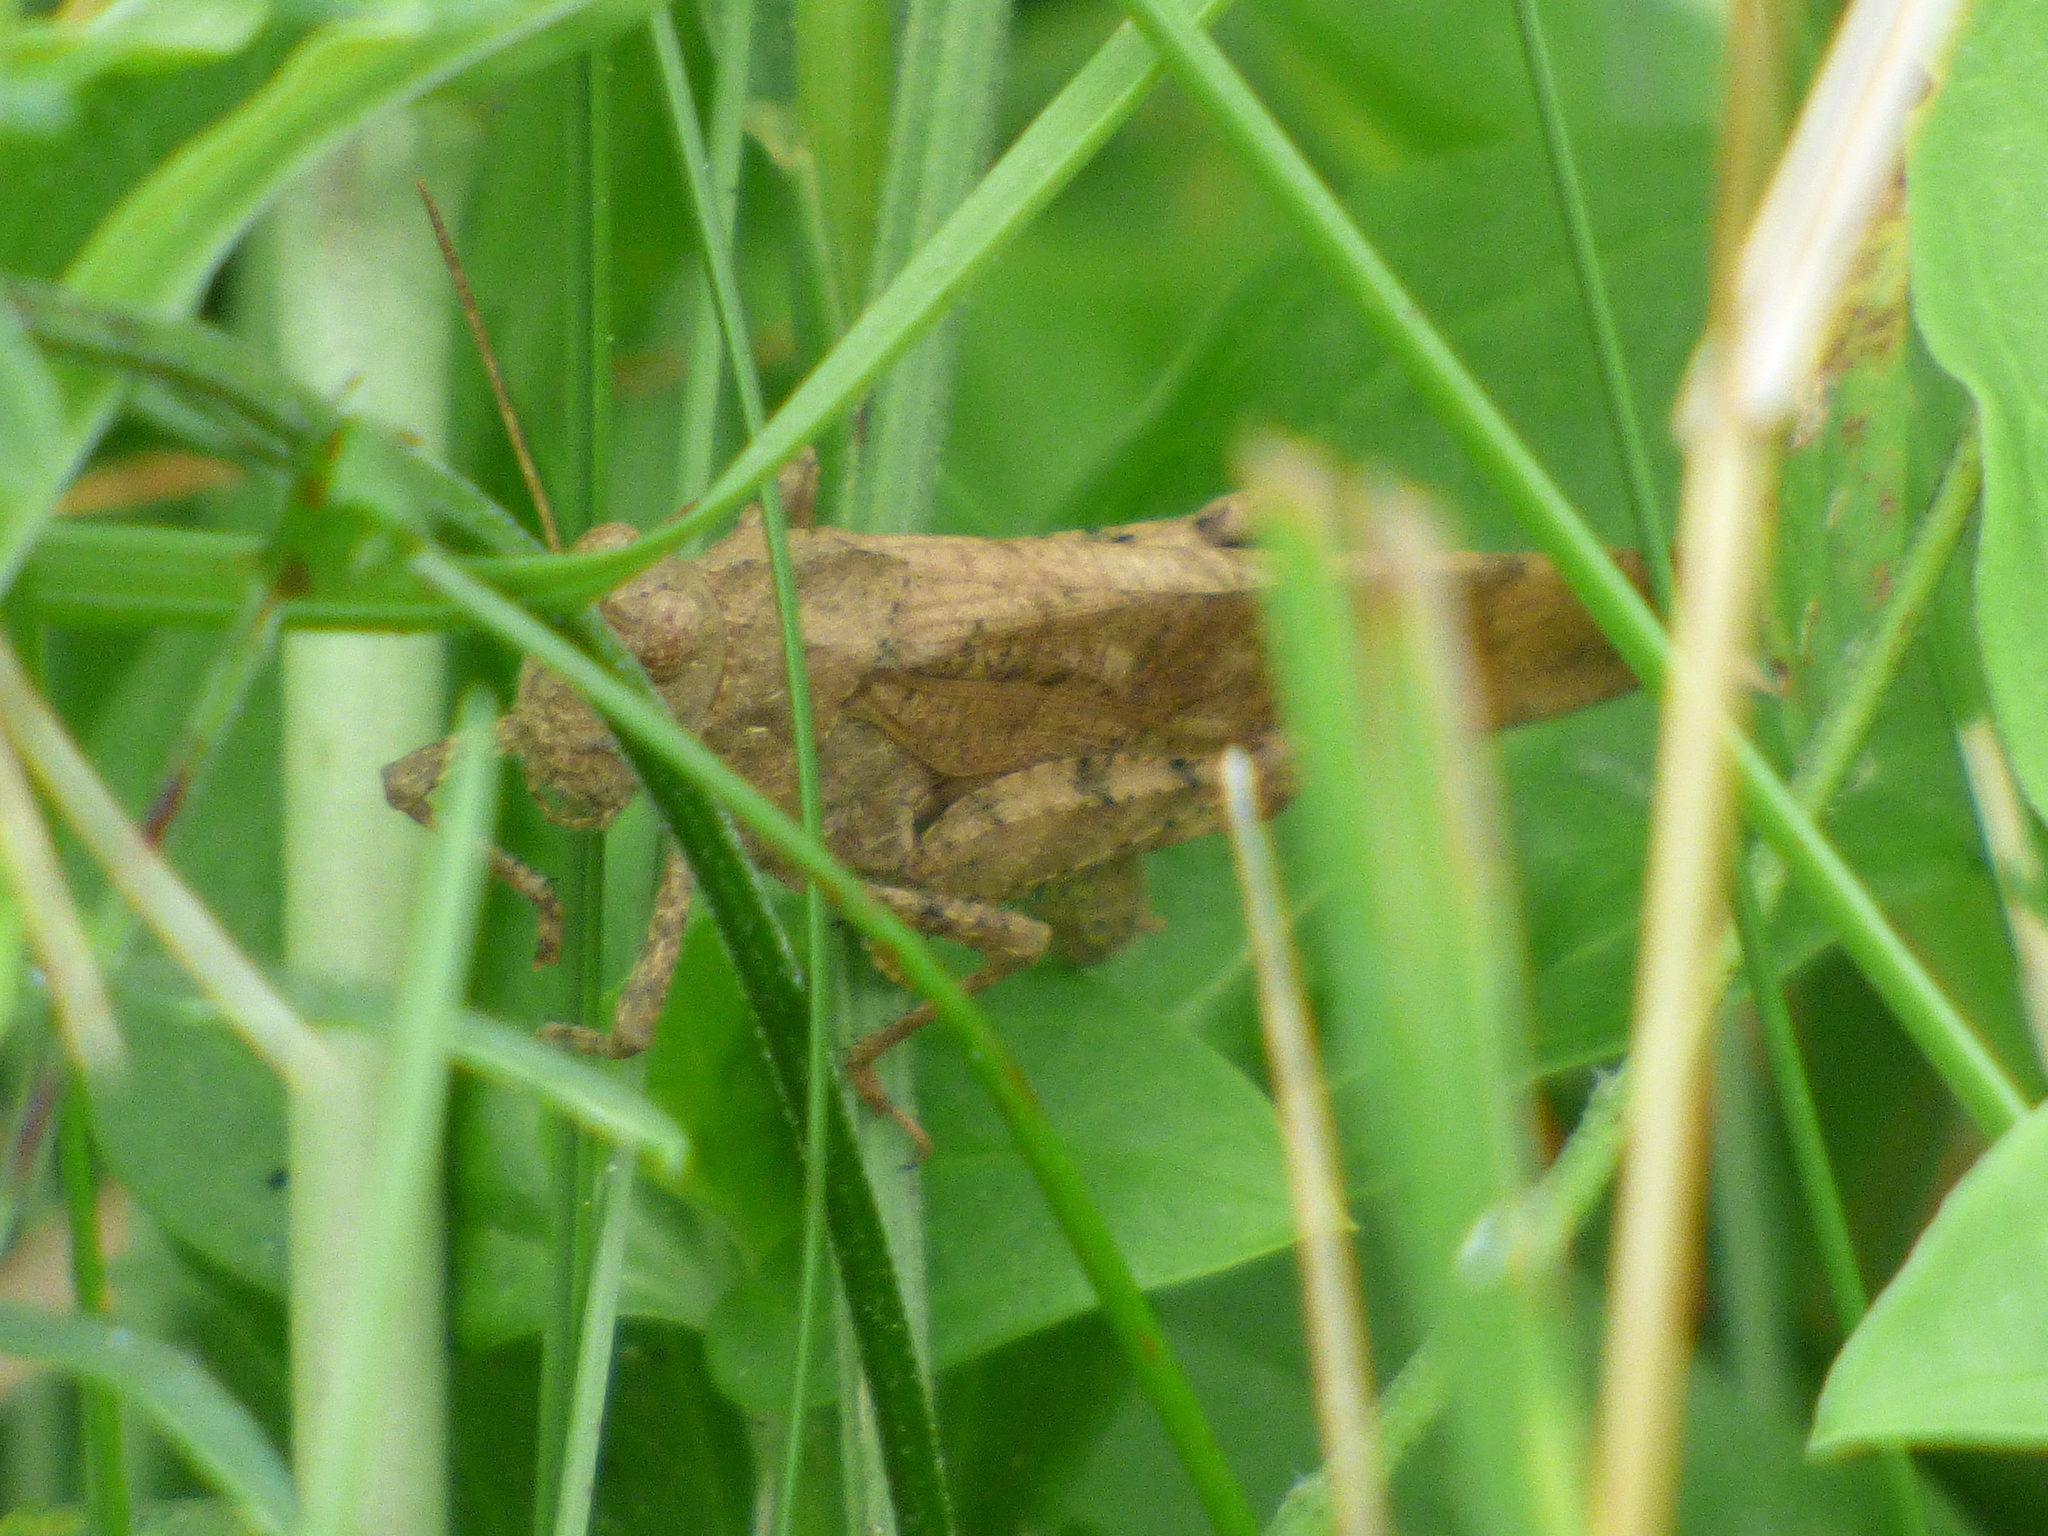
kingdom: Animalia
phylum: Arthropoda
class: Insecta
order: Orthoptera
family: Acrididae
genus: Dissosteira
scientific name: Dissosteira carolina
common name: Carolina grasshopper
